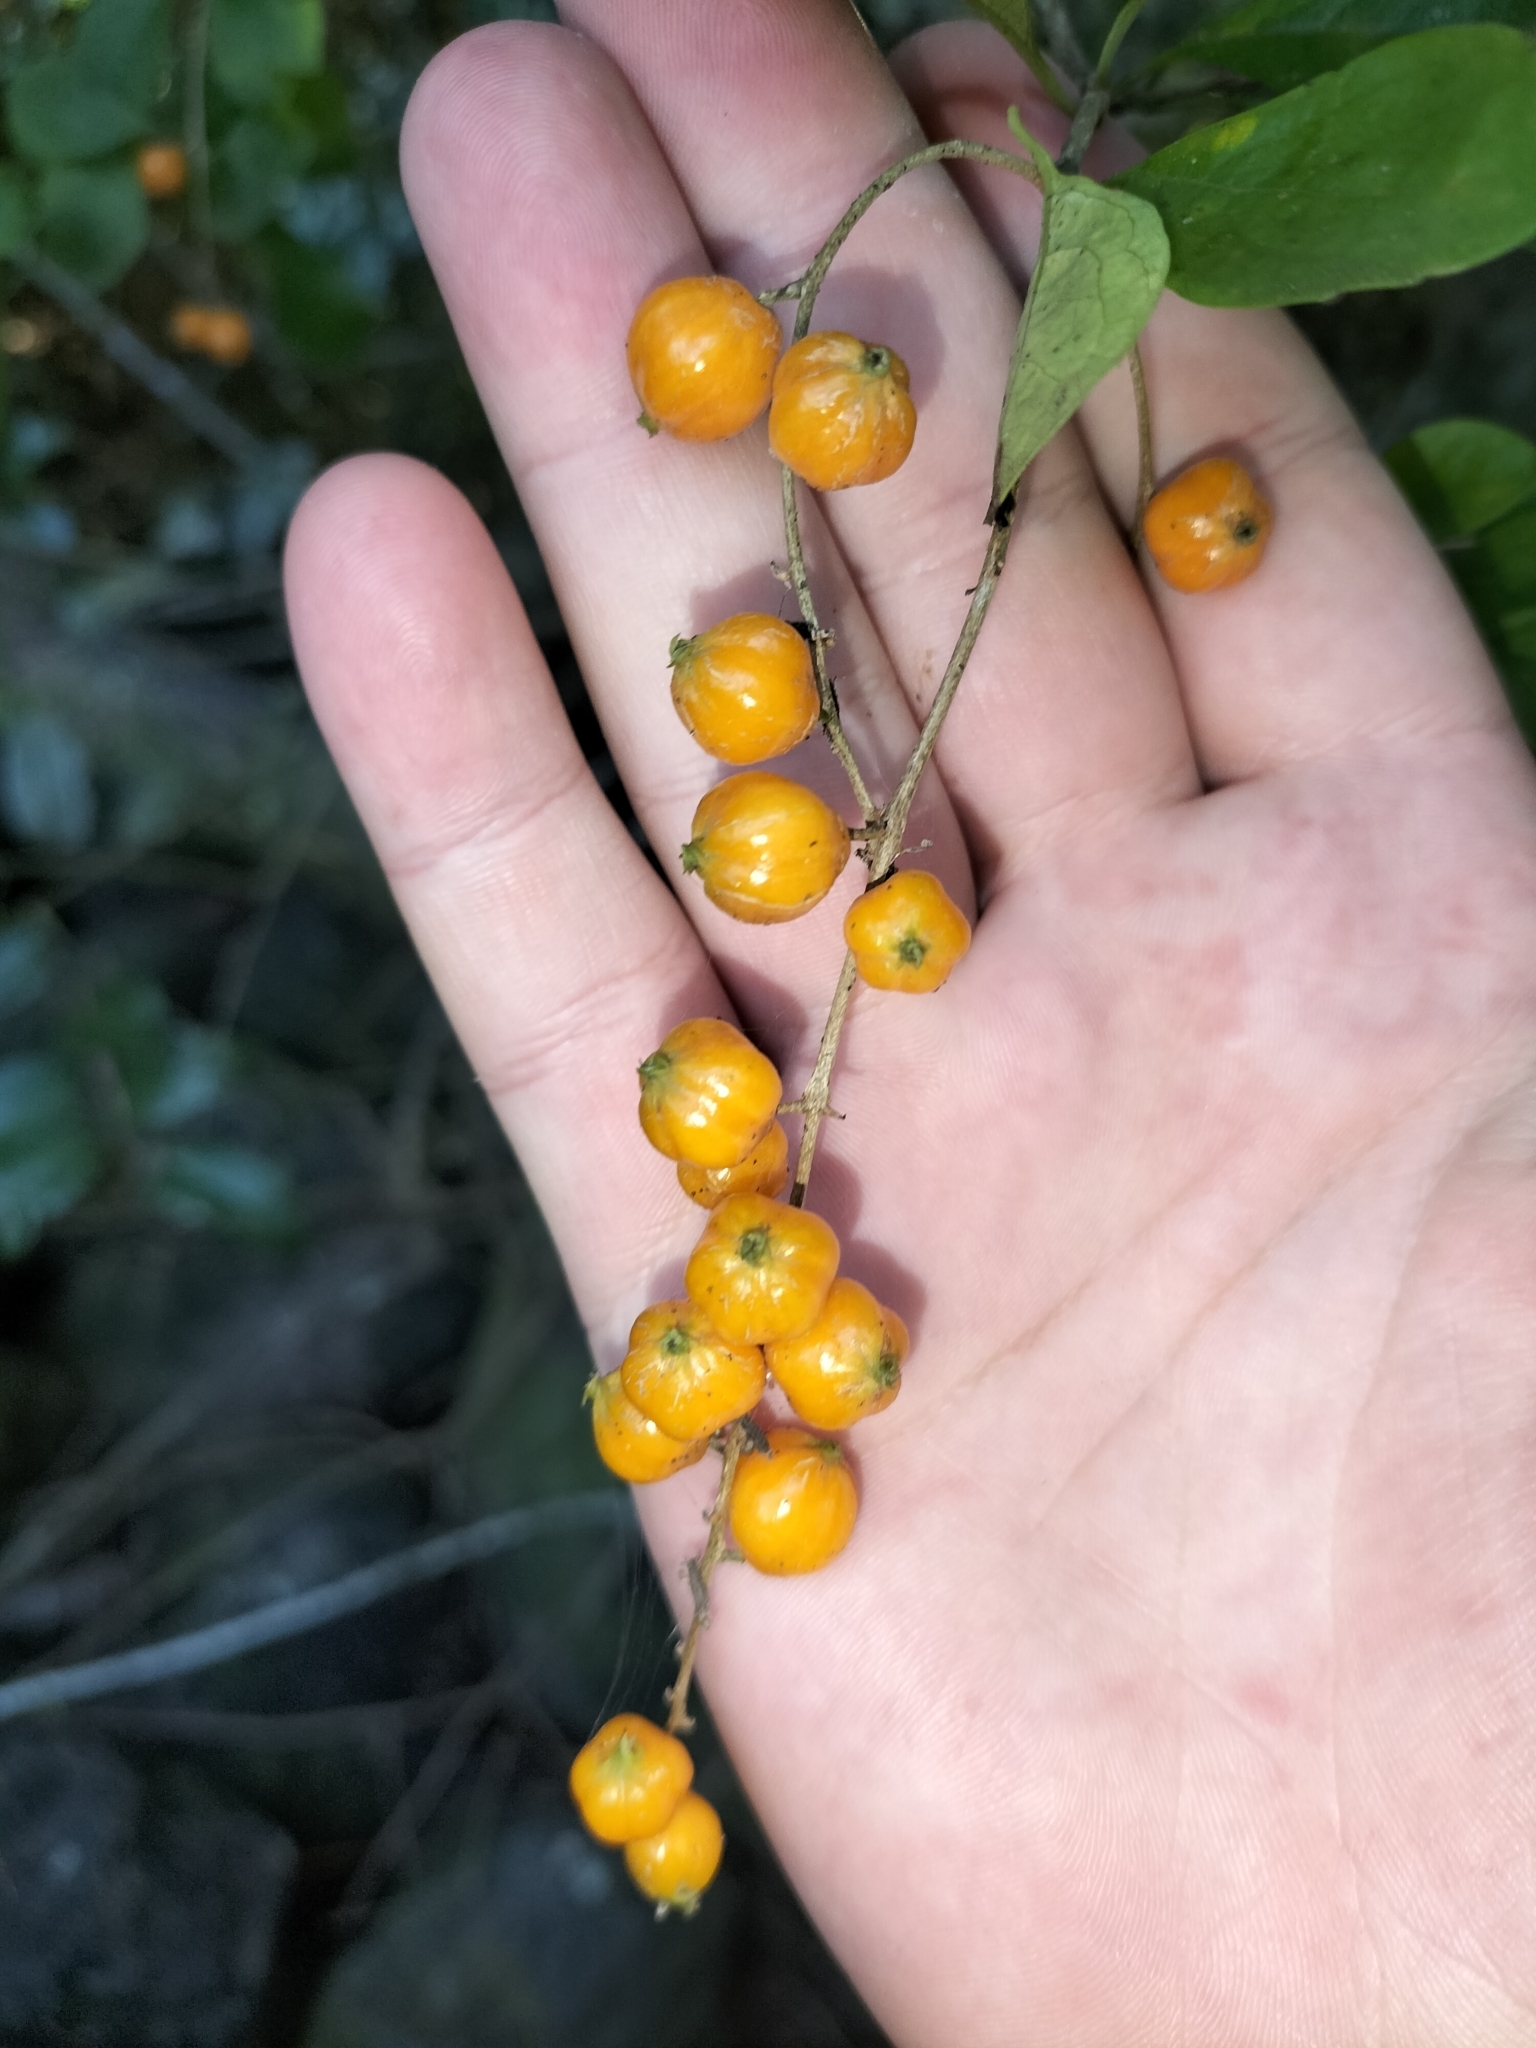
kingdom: Plantae
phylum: Tracheophyta
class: Magnoliopsida
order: Lamiales
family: Verbenaceae
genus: Duranta
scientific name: Duranta erecta
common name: Golden dewdrops
